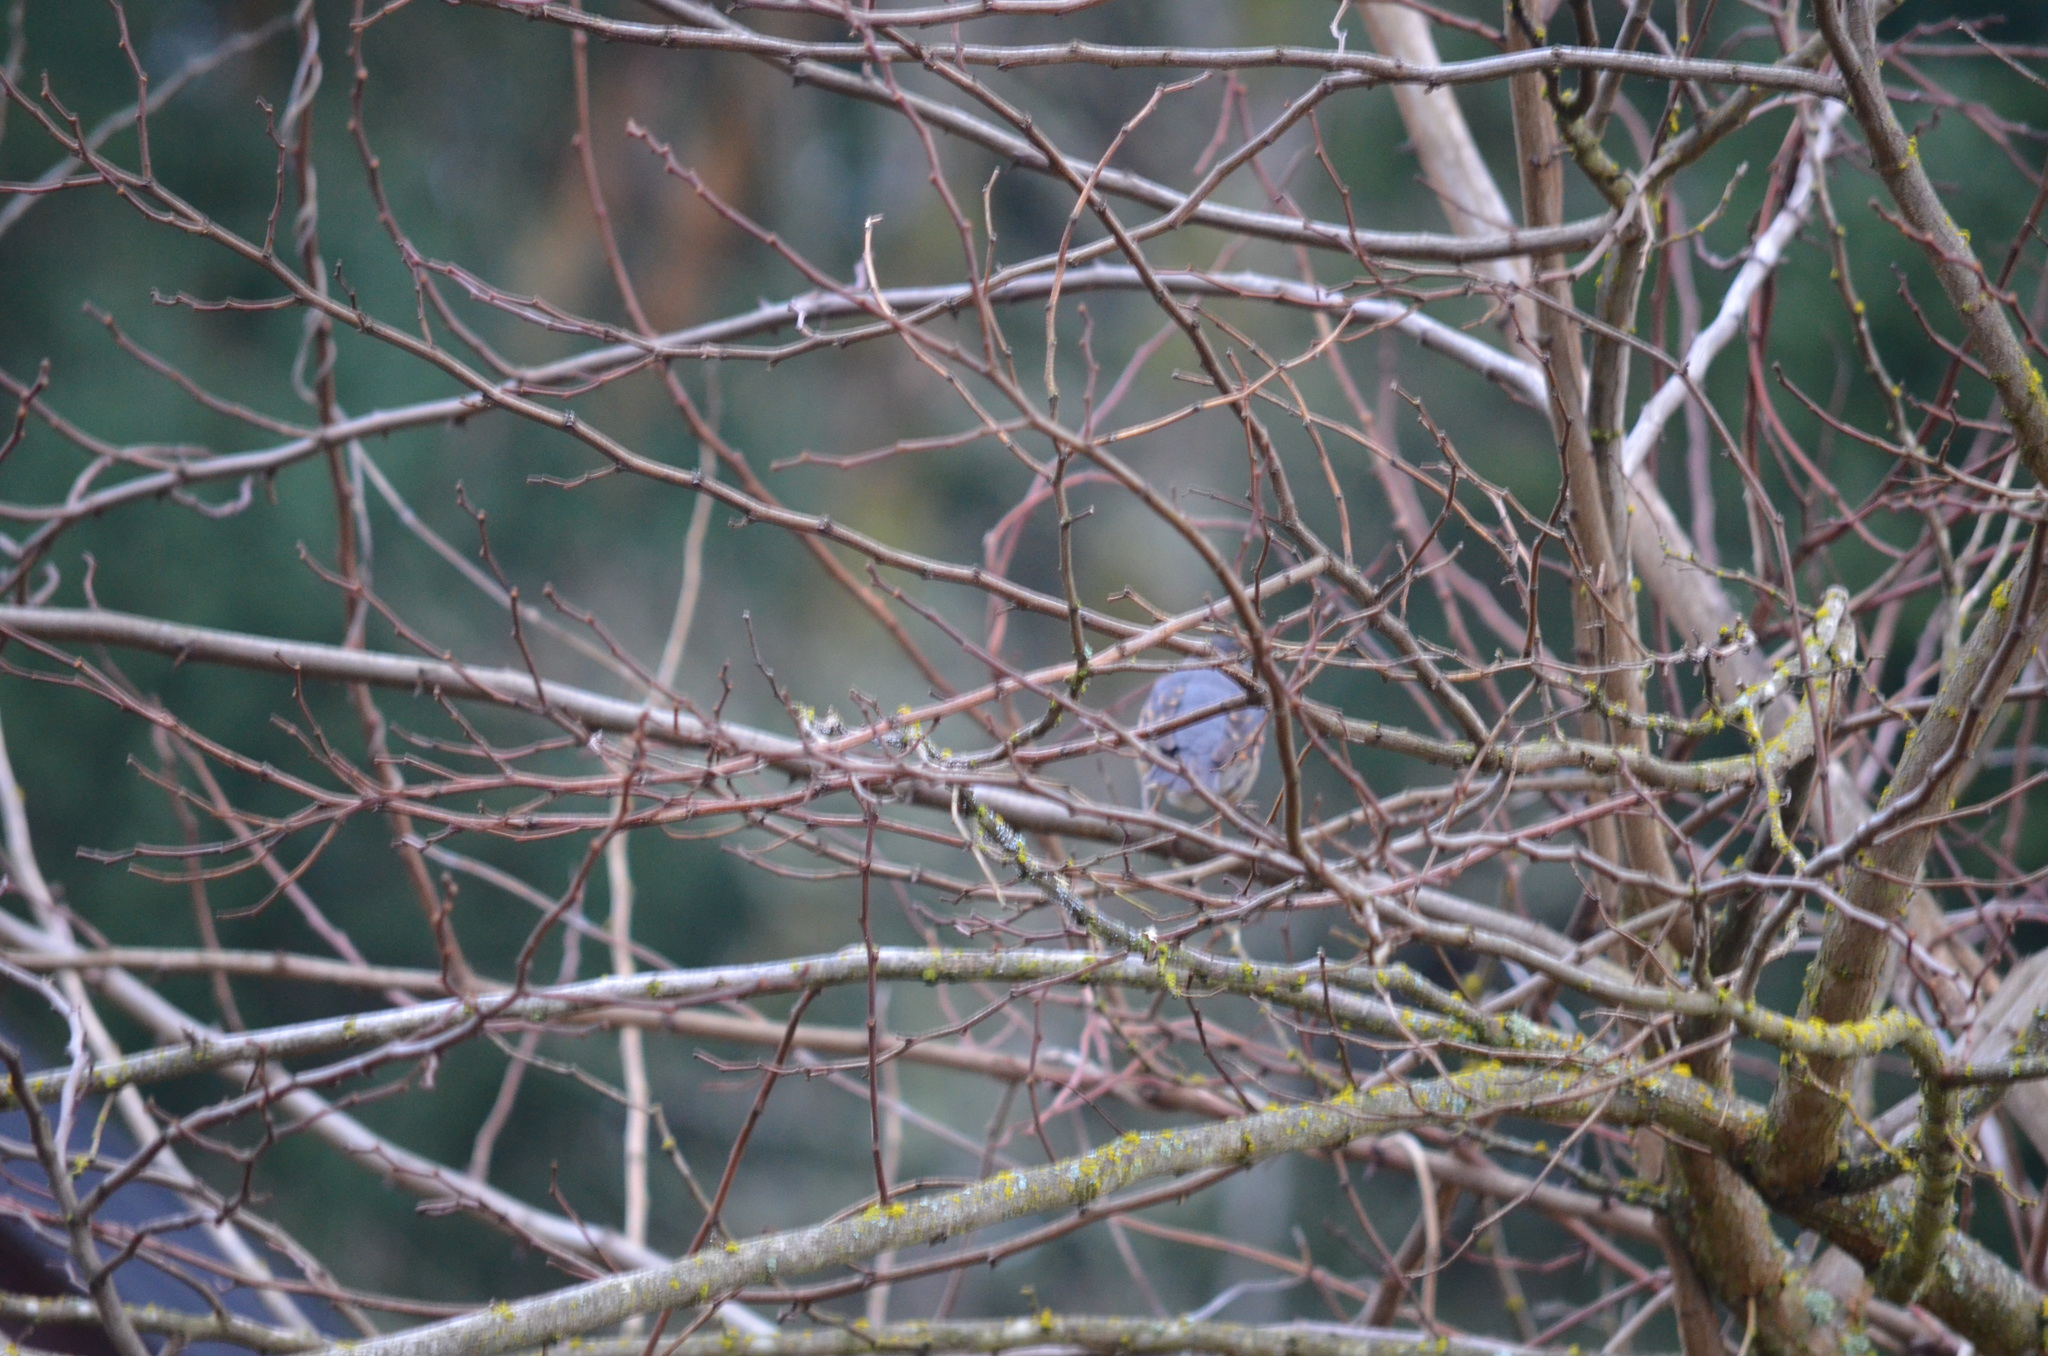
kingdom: Animalia
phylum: Chordata
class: Aves
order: Passeriformes
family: Turdidae
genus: Ixoreus
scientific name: Ixoreus naevius
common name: Varied thrush
